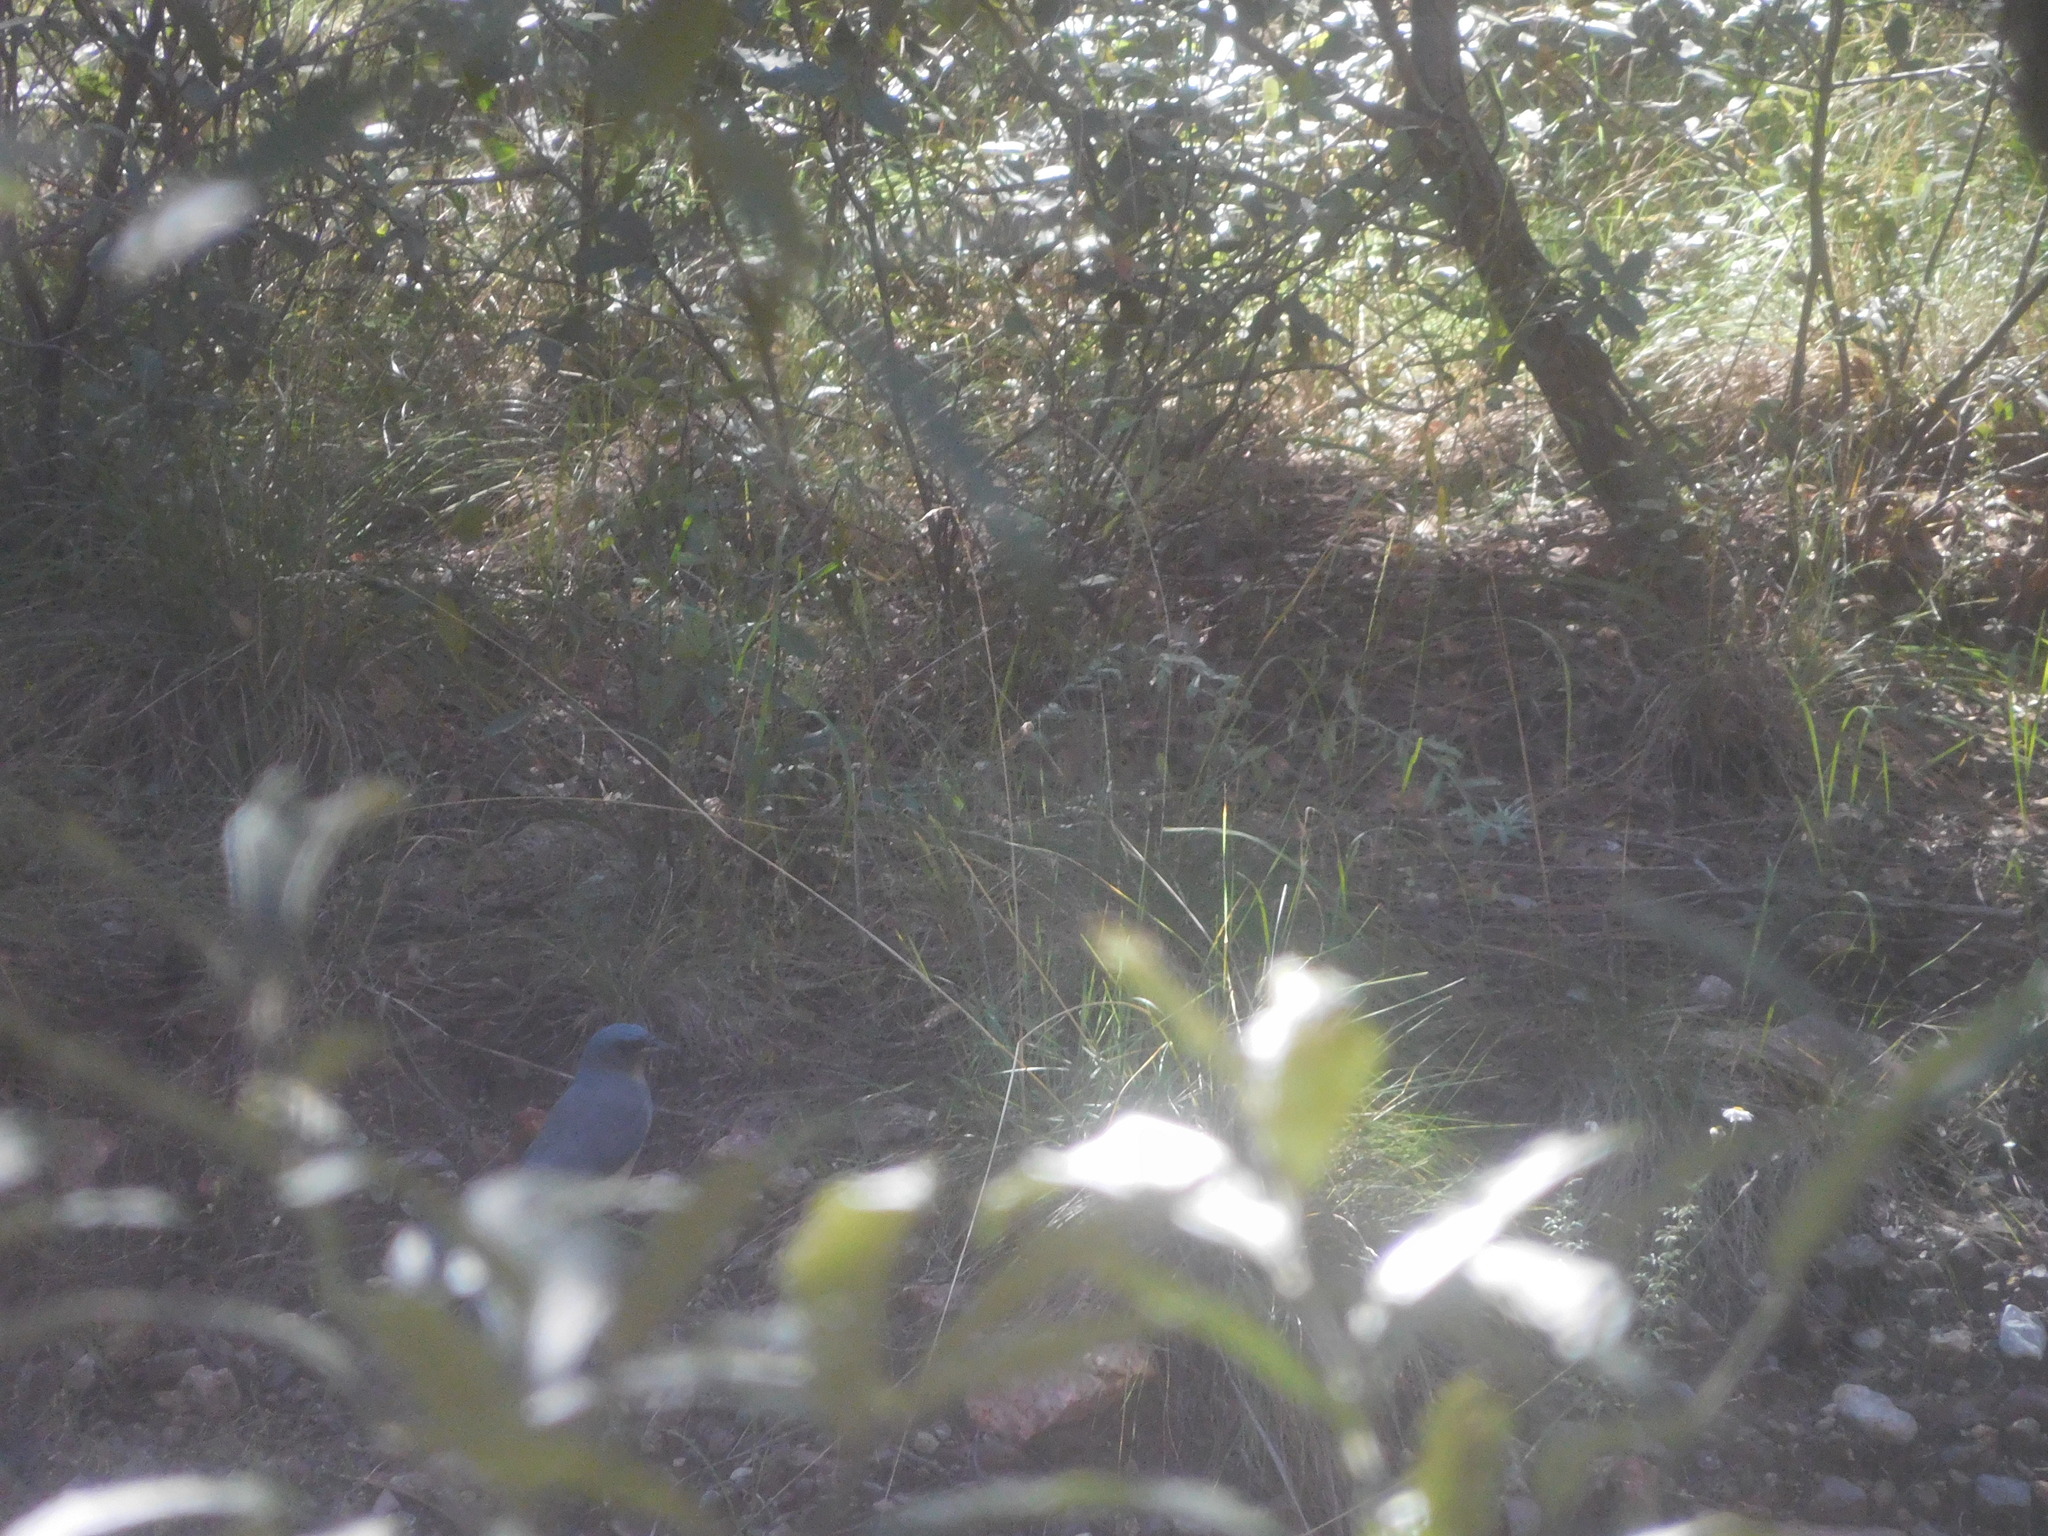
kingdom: Animalia
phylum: Chordata
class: Aves
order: Passeriformes
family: Corvidae
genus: Aphelocoma
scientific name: Aphelocoma wollweberi
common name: Mexican jay
